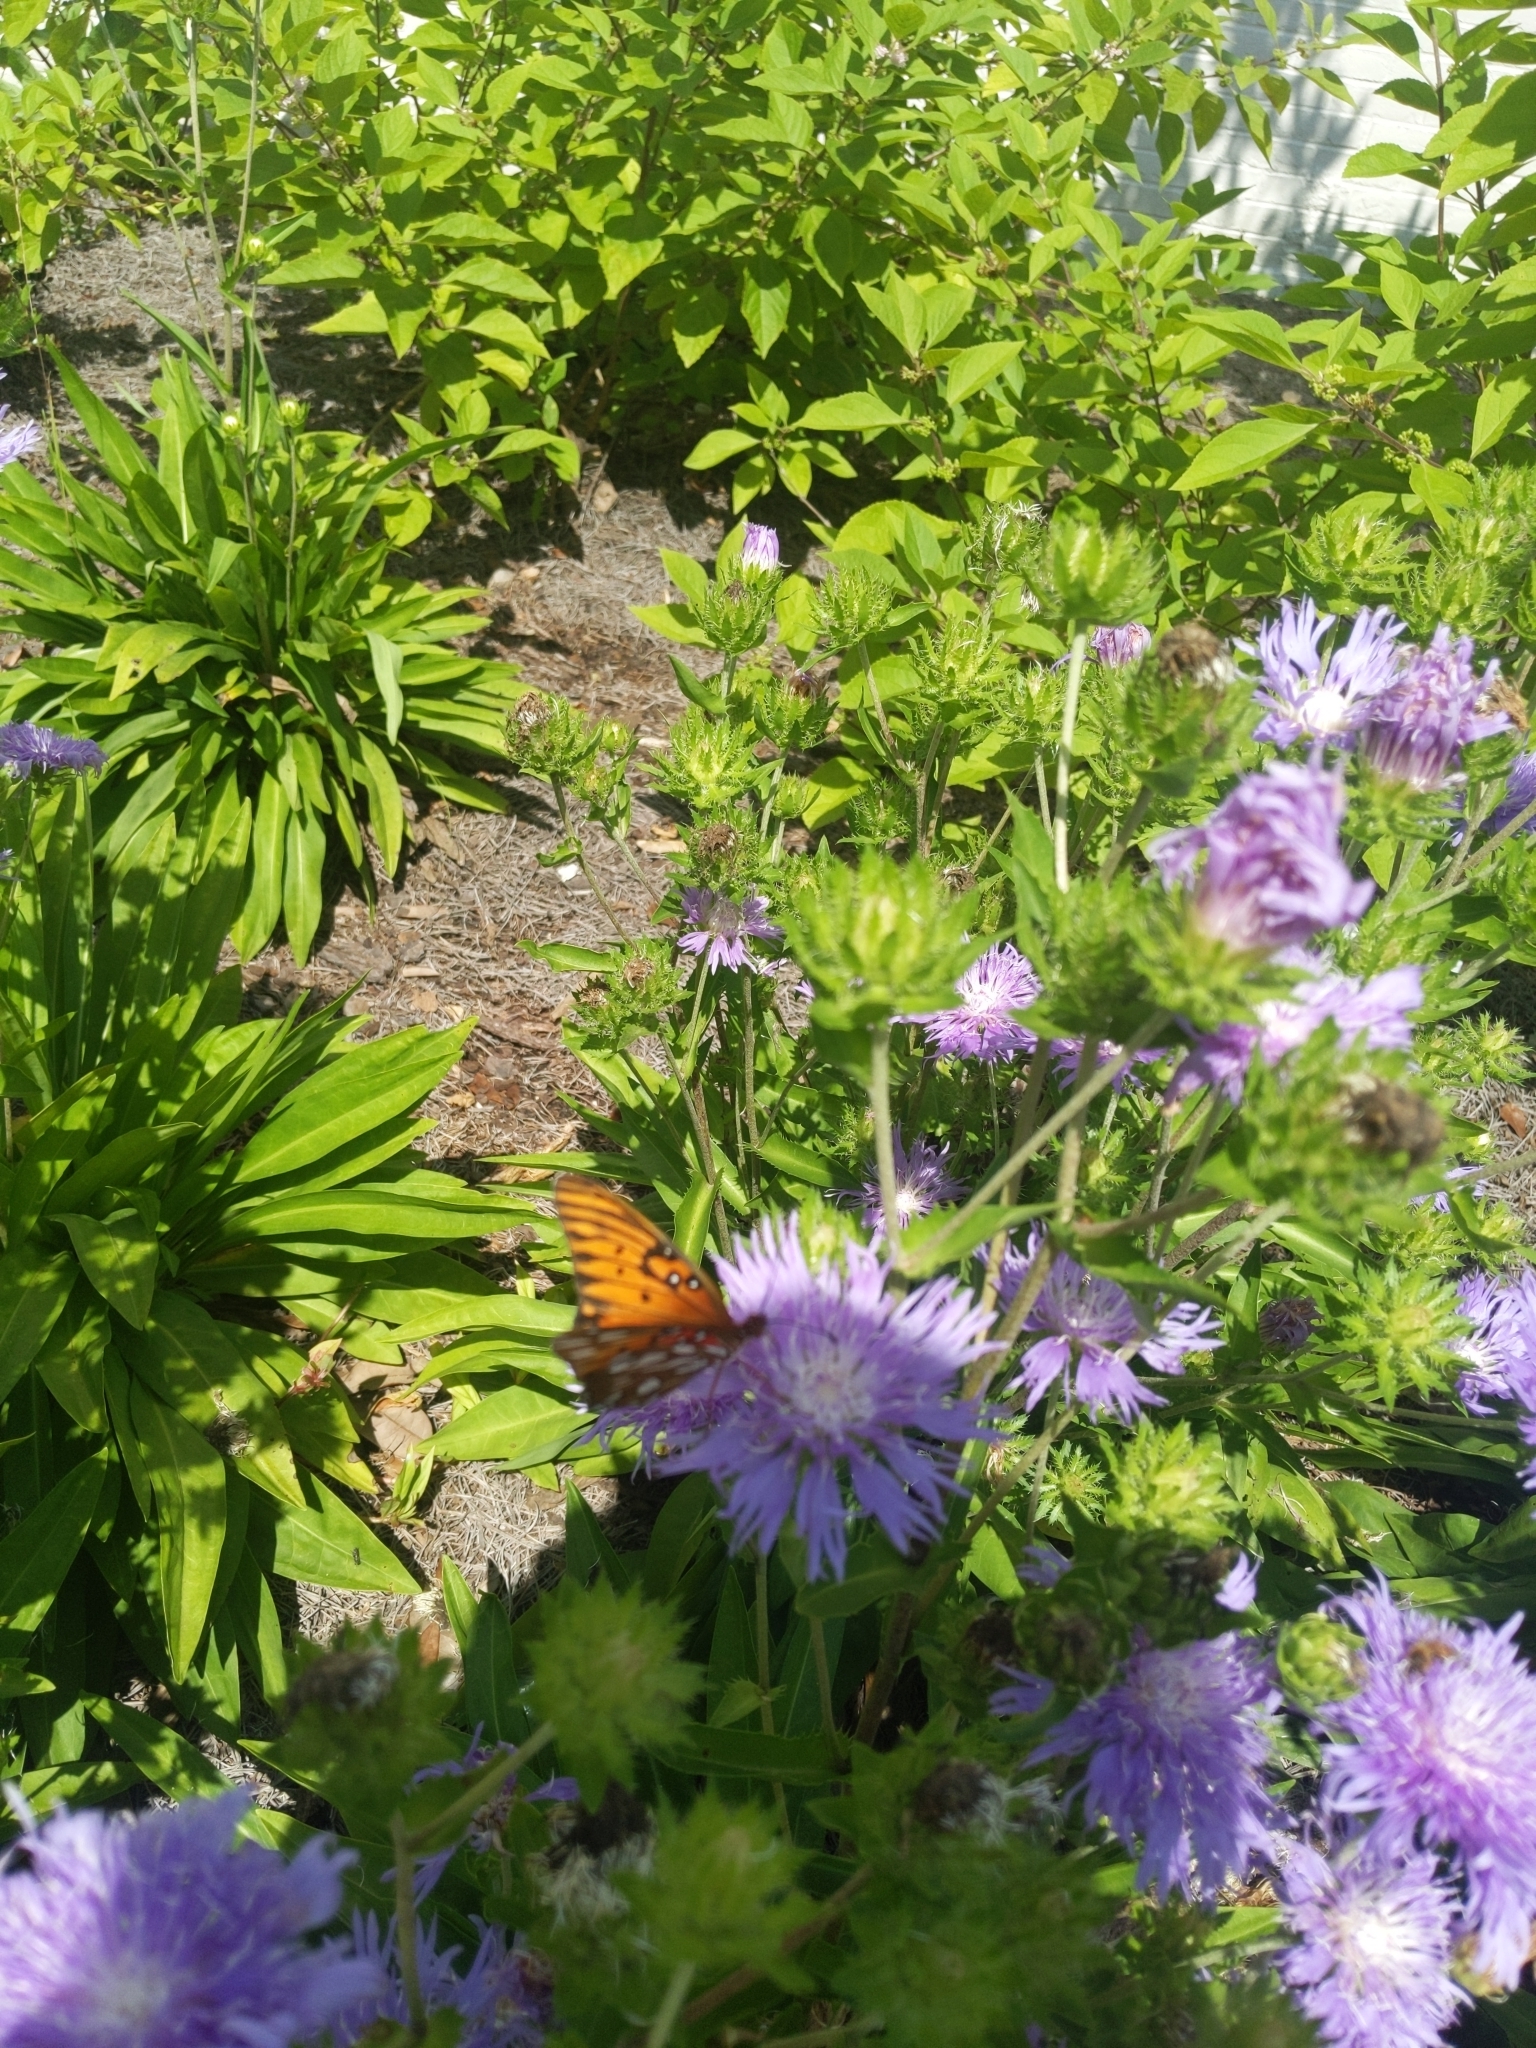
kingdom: Animalia
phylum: Arthropoda
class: Insecta
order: Lepidoptera
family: Nymphalidae
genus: Dione
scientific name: Dione vanillae
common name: Gulf fritillary
